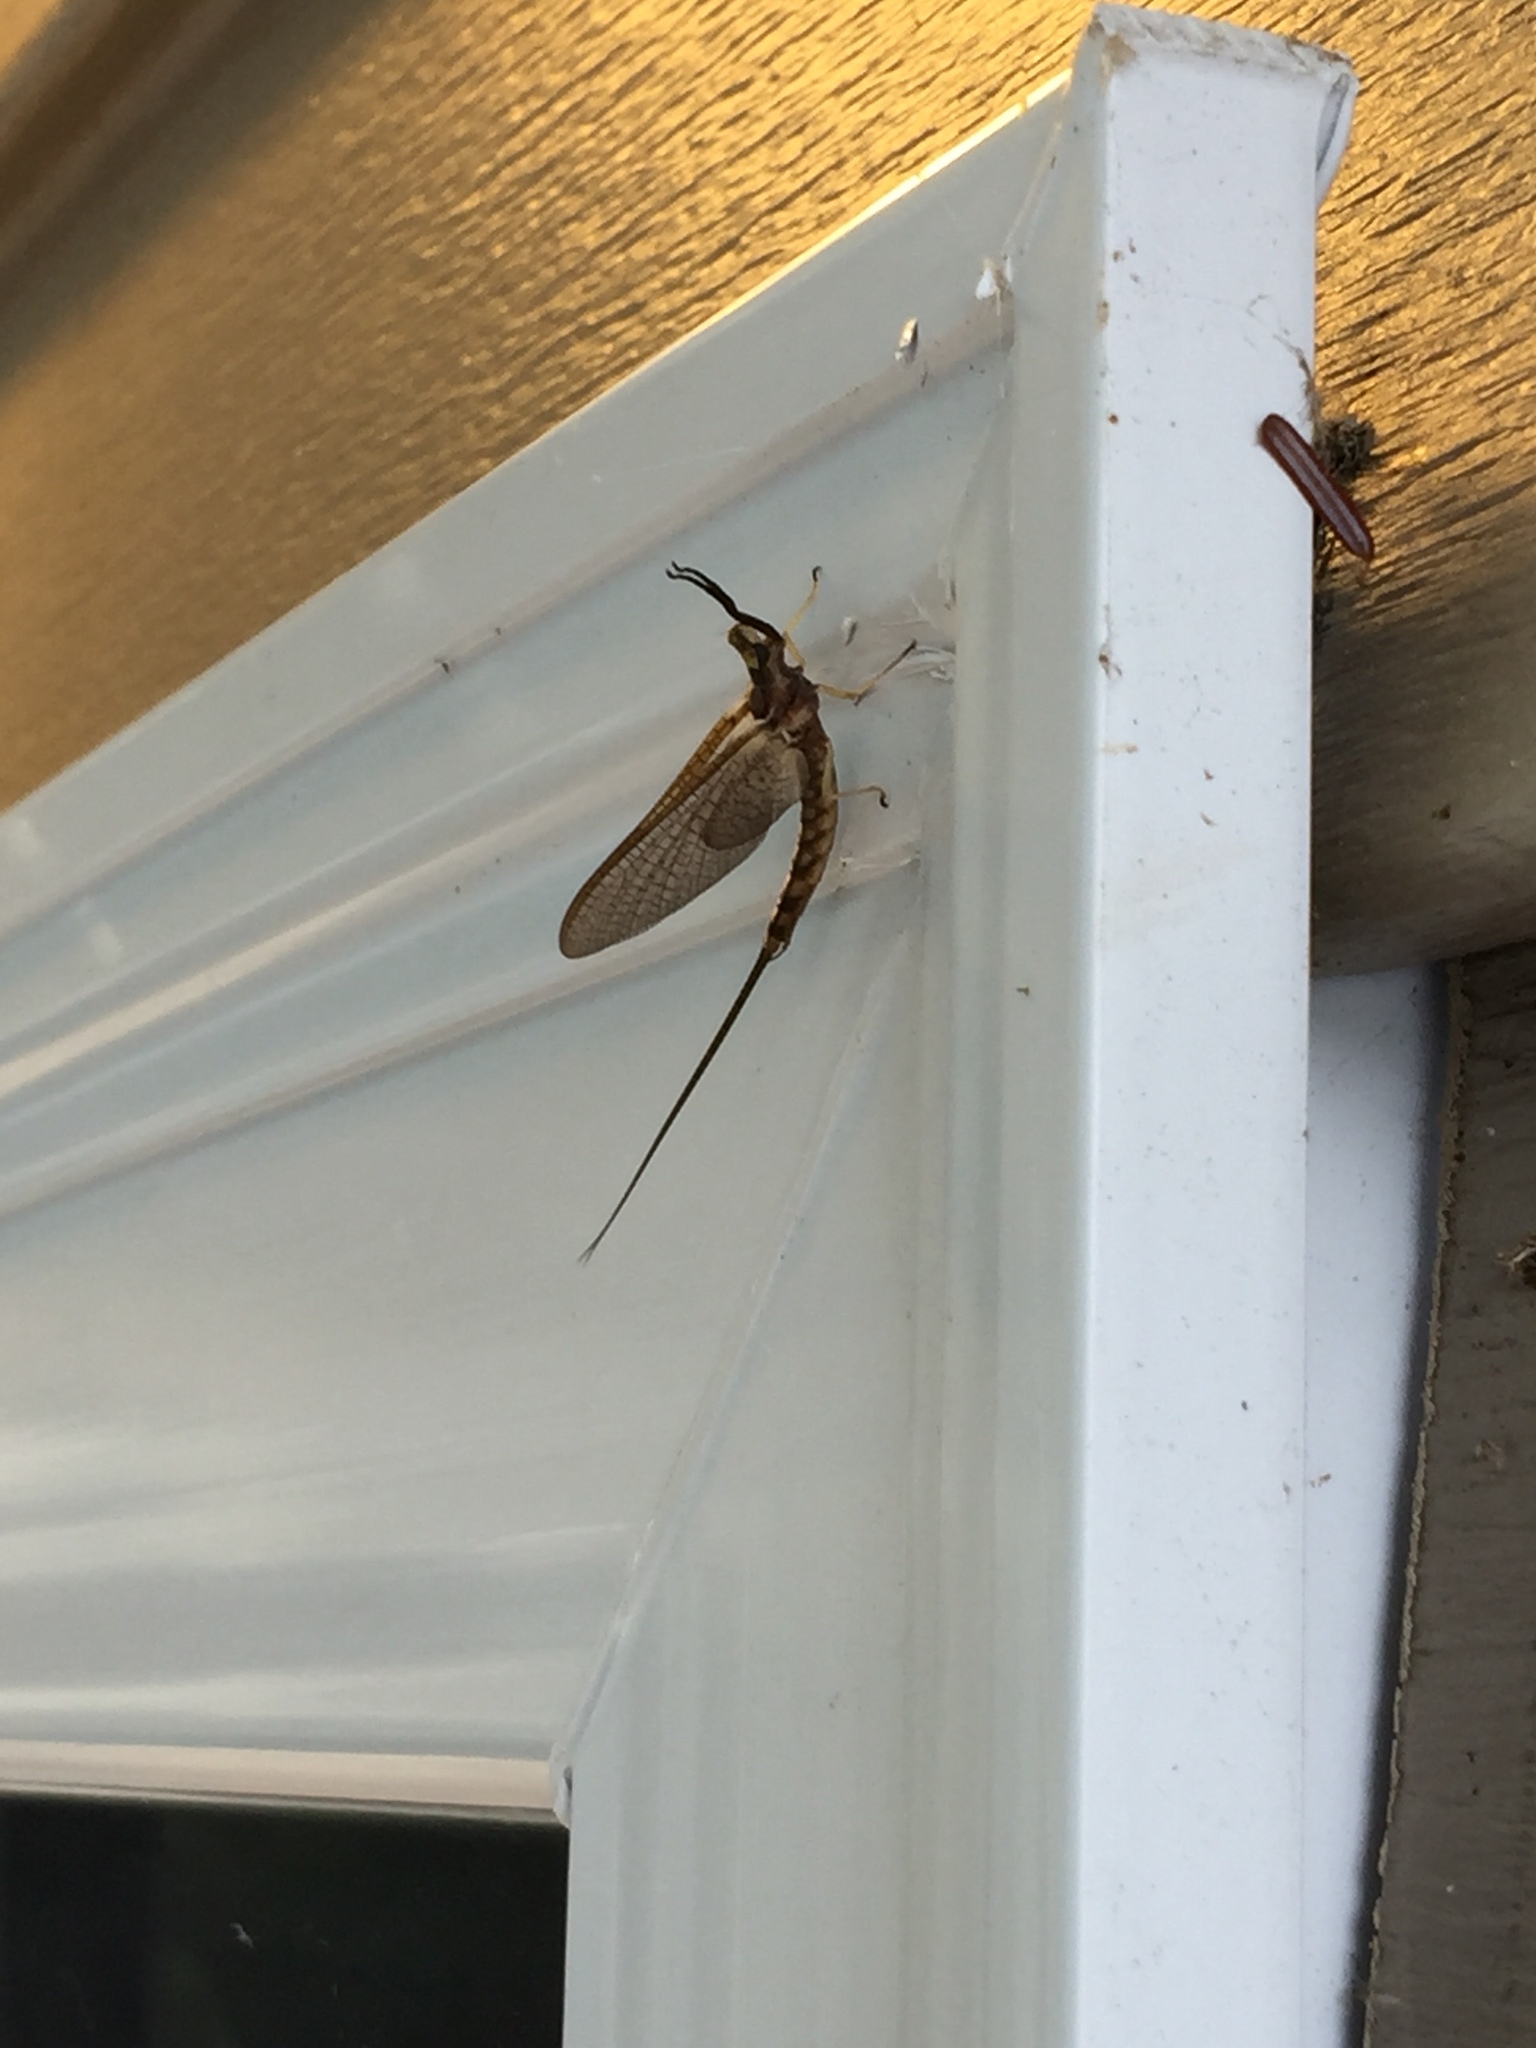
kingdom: Animalia
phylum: Arthropoda
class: Insecta
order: Ephemeroptera
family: Ephemeridae
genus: Hexagenia
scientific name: Hexagenia limbata
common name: Giant mayfly
